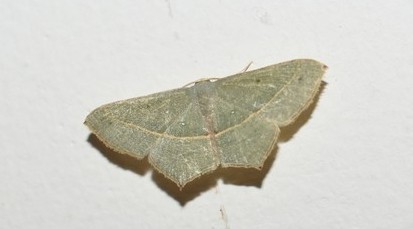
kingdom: Animalia
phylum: Arthropoda
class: Insecta
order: Lepidoptera
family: Geometridae
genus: Traminda
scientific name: Traminda mundissima
